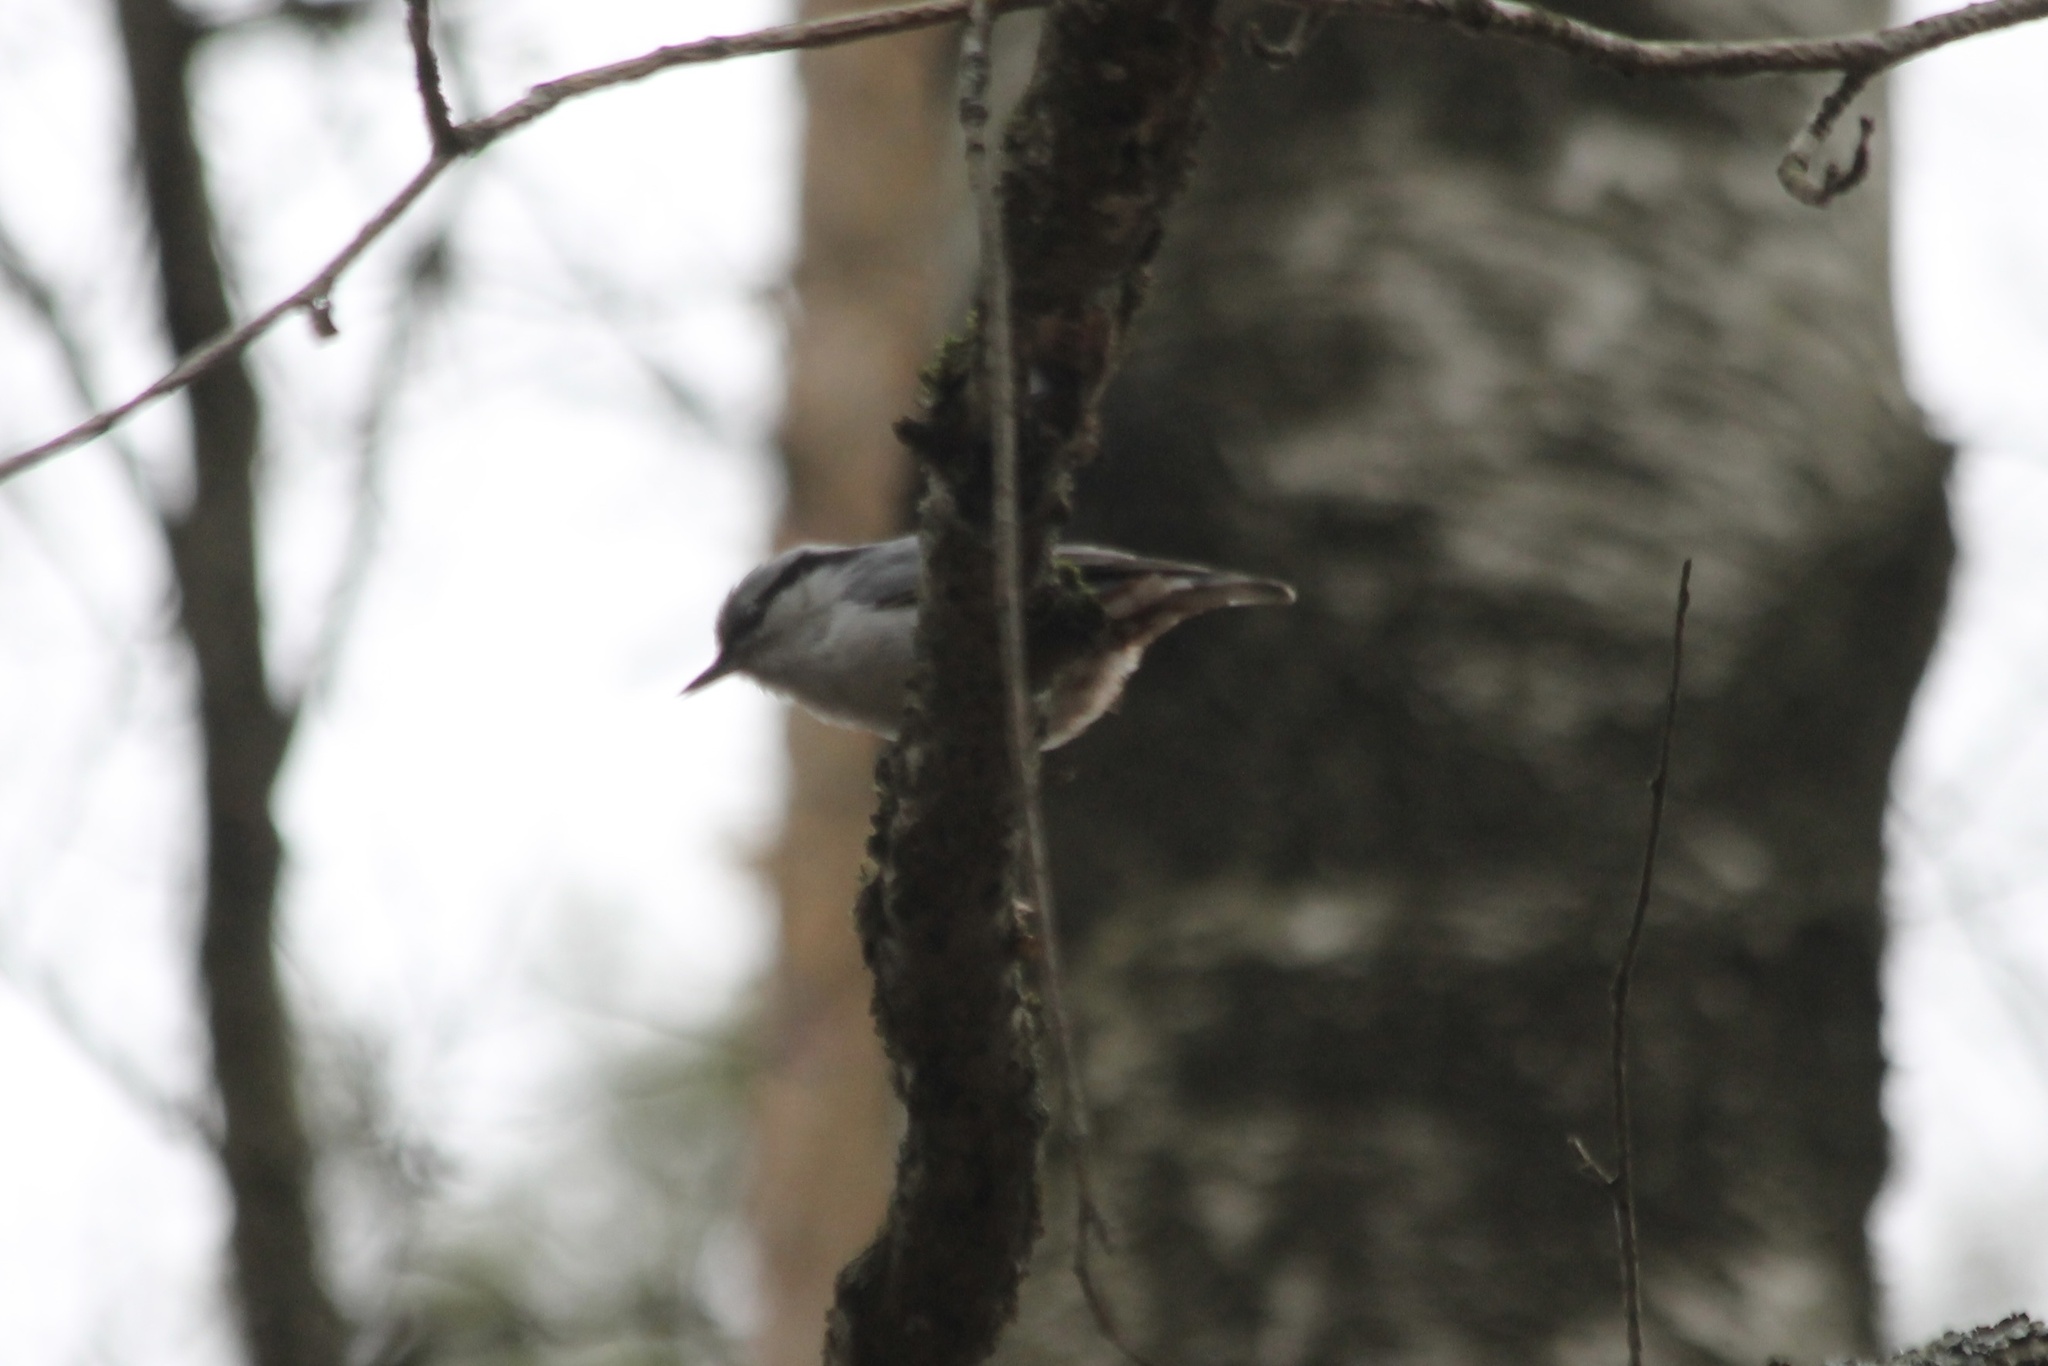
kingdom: Animalia
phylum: Chordata
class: Aves
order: Passeriformes
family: Sittidae
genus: Sitta
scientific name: Sitta europaea
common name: Eurasian nuthatch
